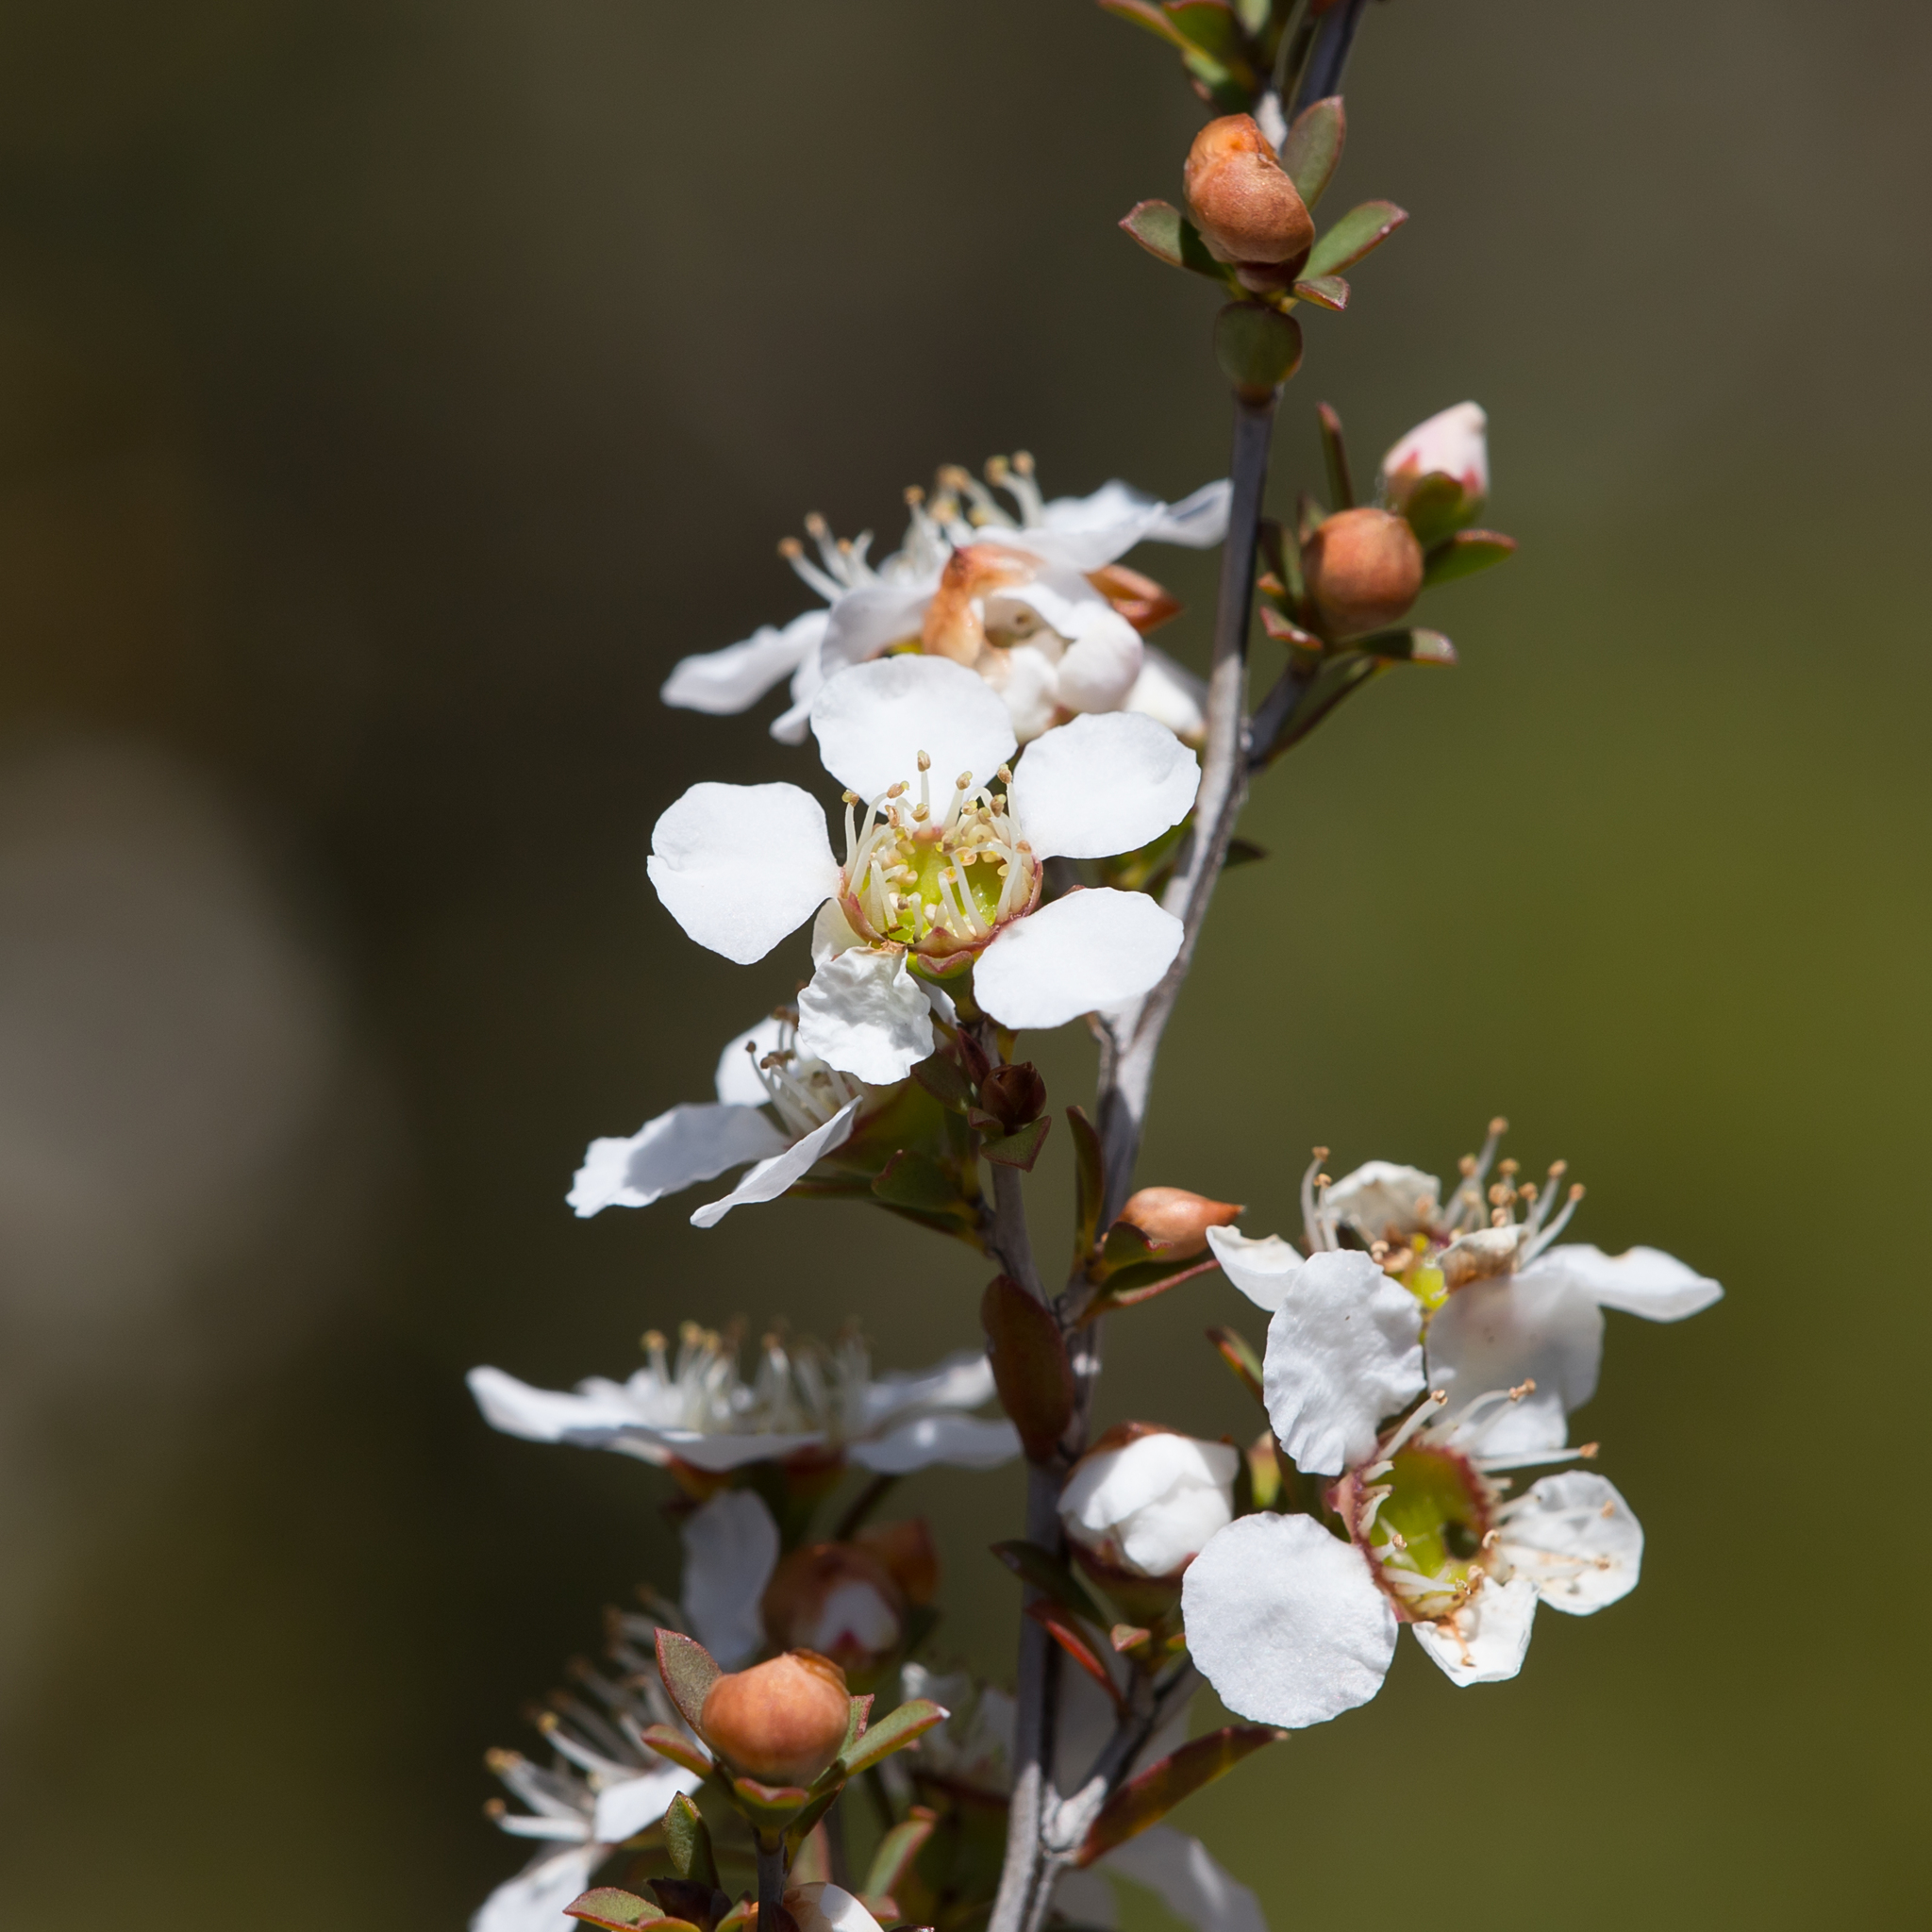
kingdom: Plantae
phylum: Tracheophyta
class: Magnoliopsida
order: Myrtales
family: Myrtaceae
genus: Leptospermum
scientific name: Leptospermum myrsinoides
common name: Heath teatree
